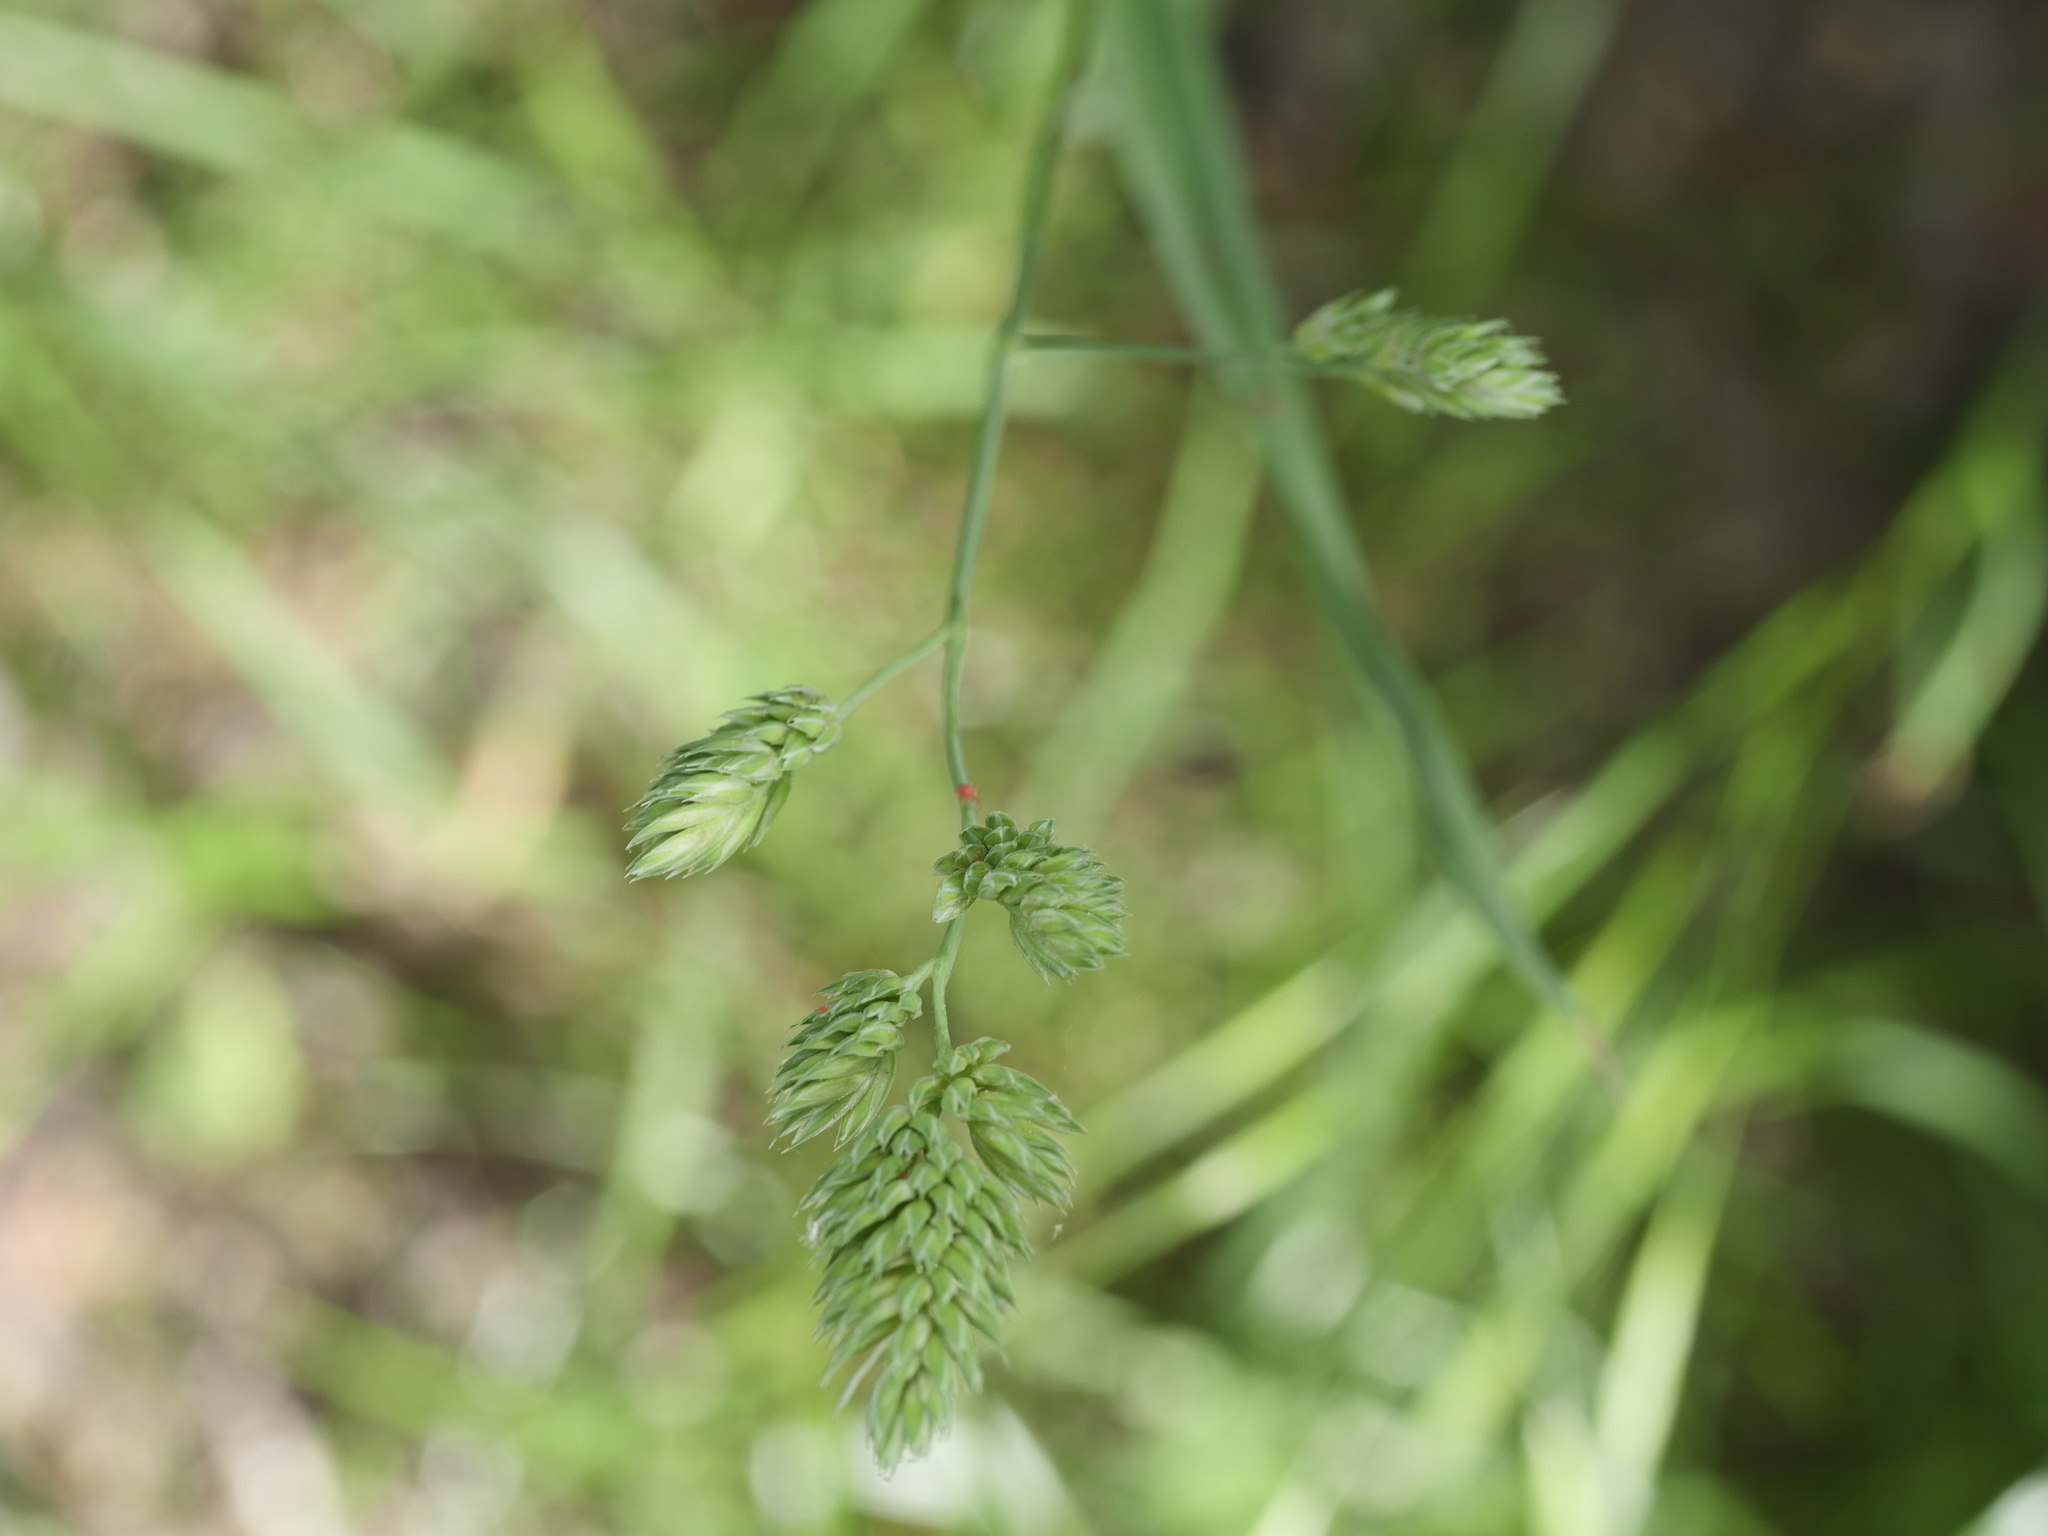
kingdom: Plantae
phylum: Tracheophyta
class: Liliopsida
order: Poales
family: Poaceae
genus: Dactylis
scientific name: Dactylis glomerata
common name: Orchardgrass
